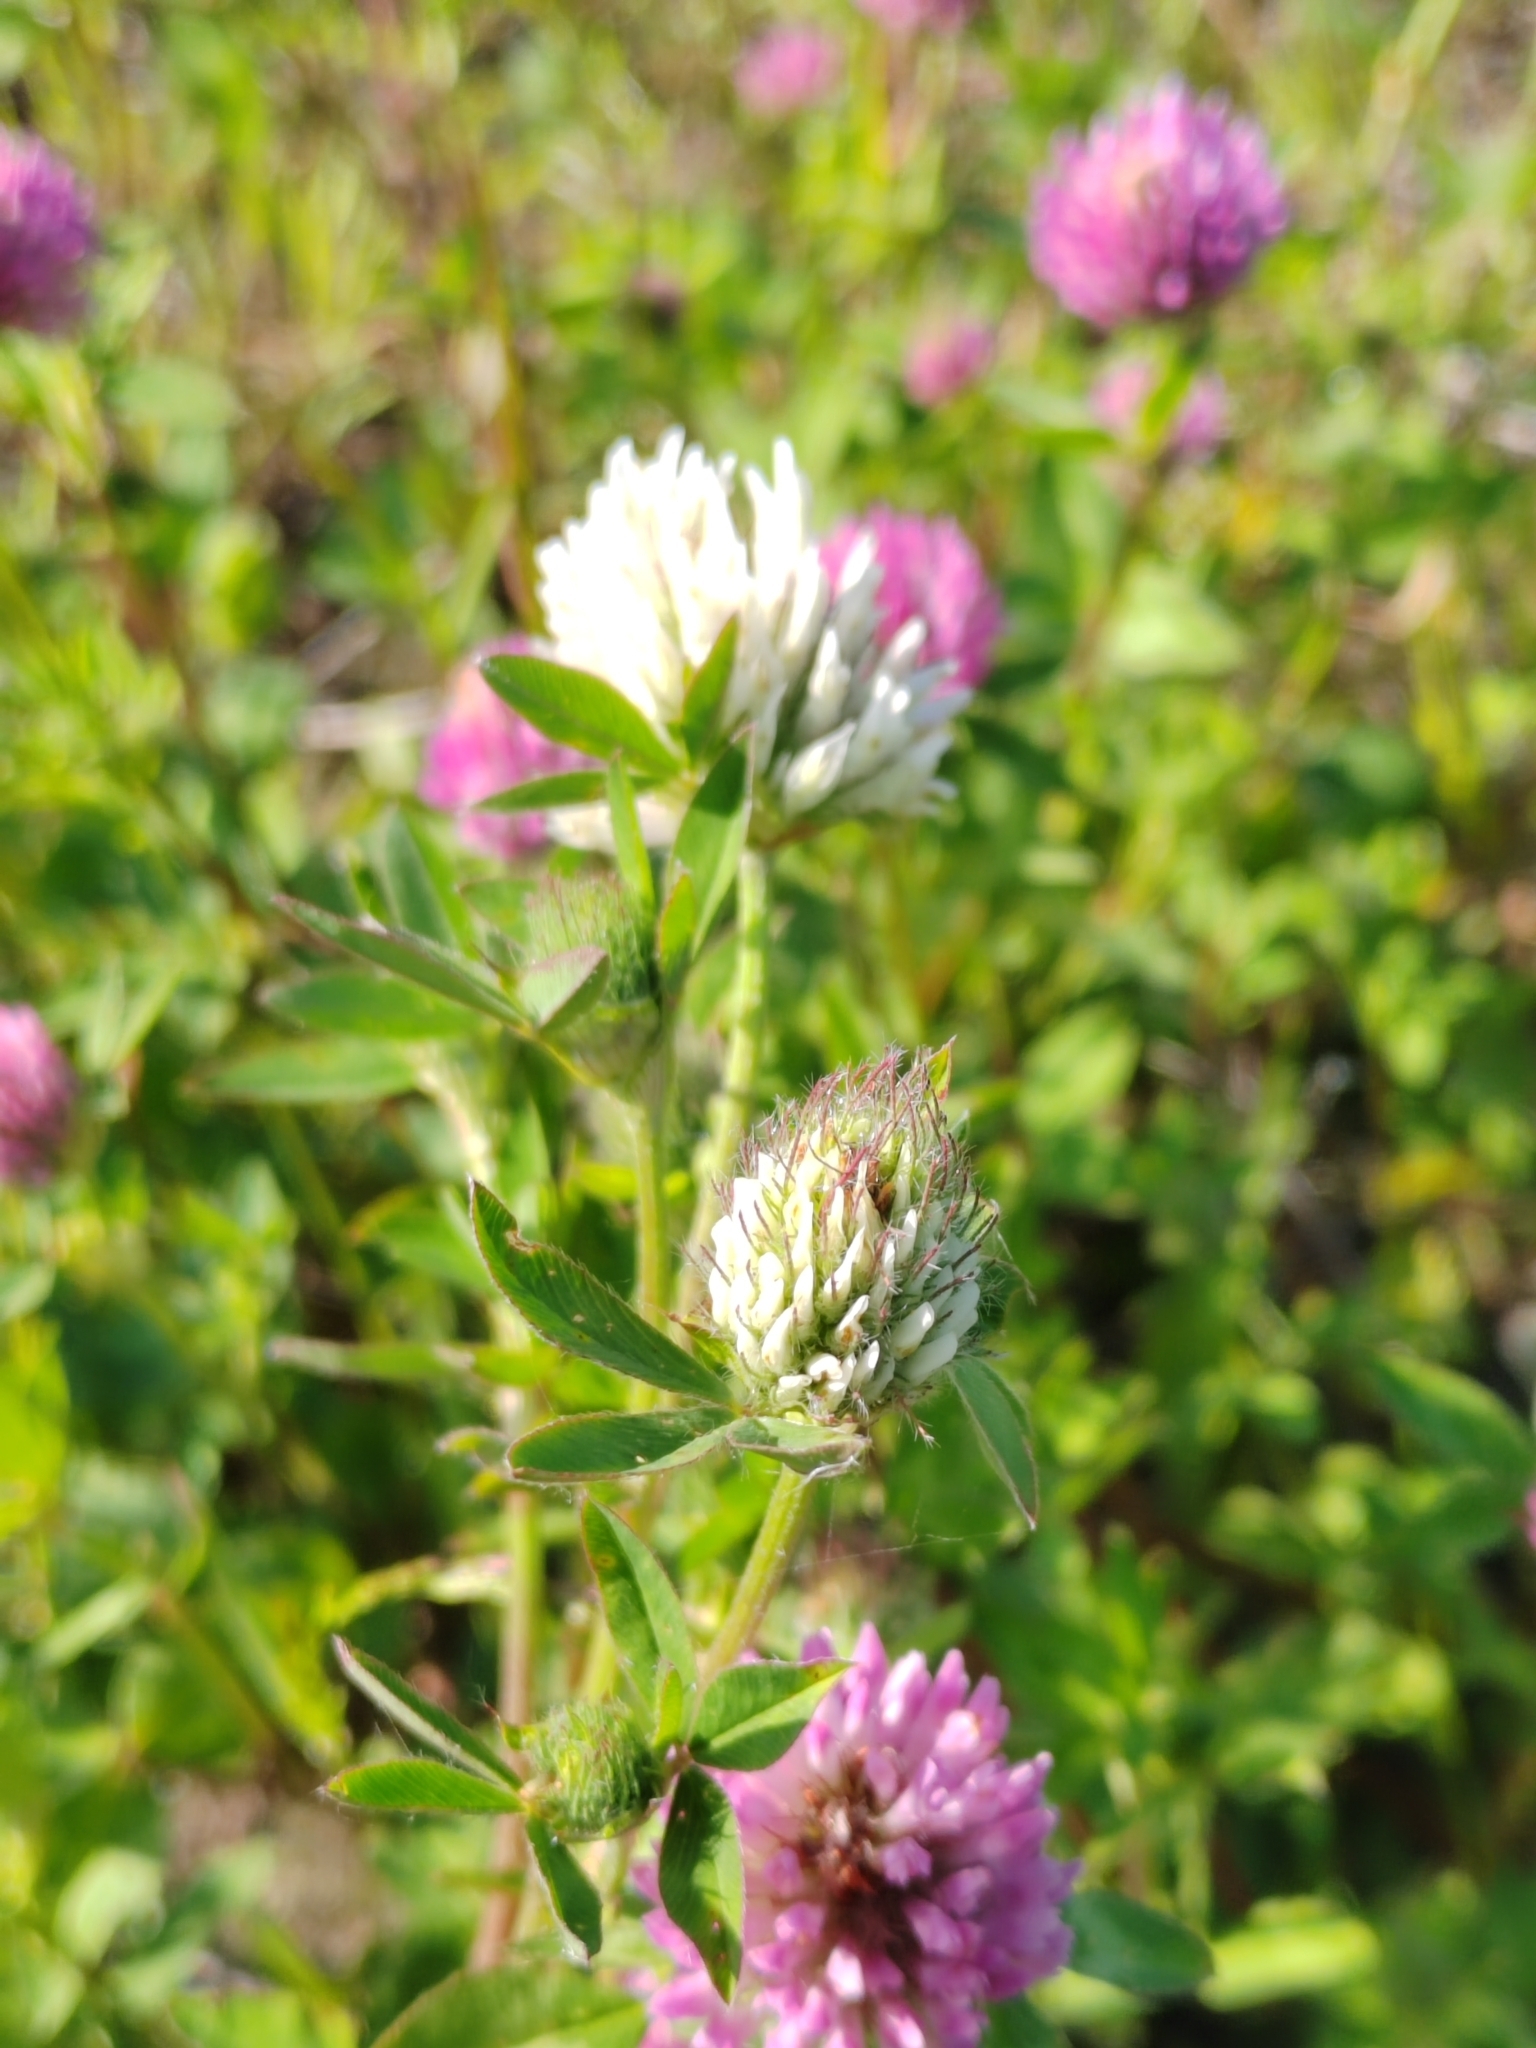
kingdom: Plantae
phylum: Tracheophyta
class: Magnoliopsida
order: Fabales
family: Fabaceae
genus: Trifolium
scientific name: Trifolium pratense
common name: Red clover
